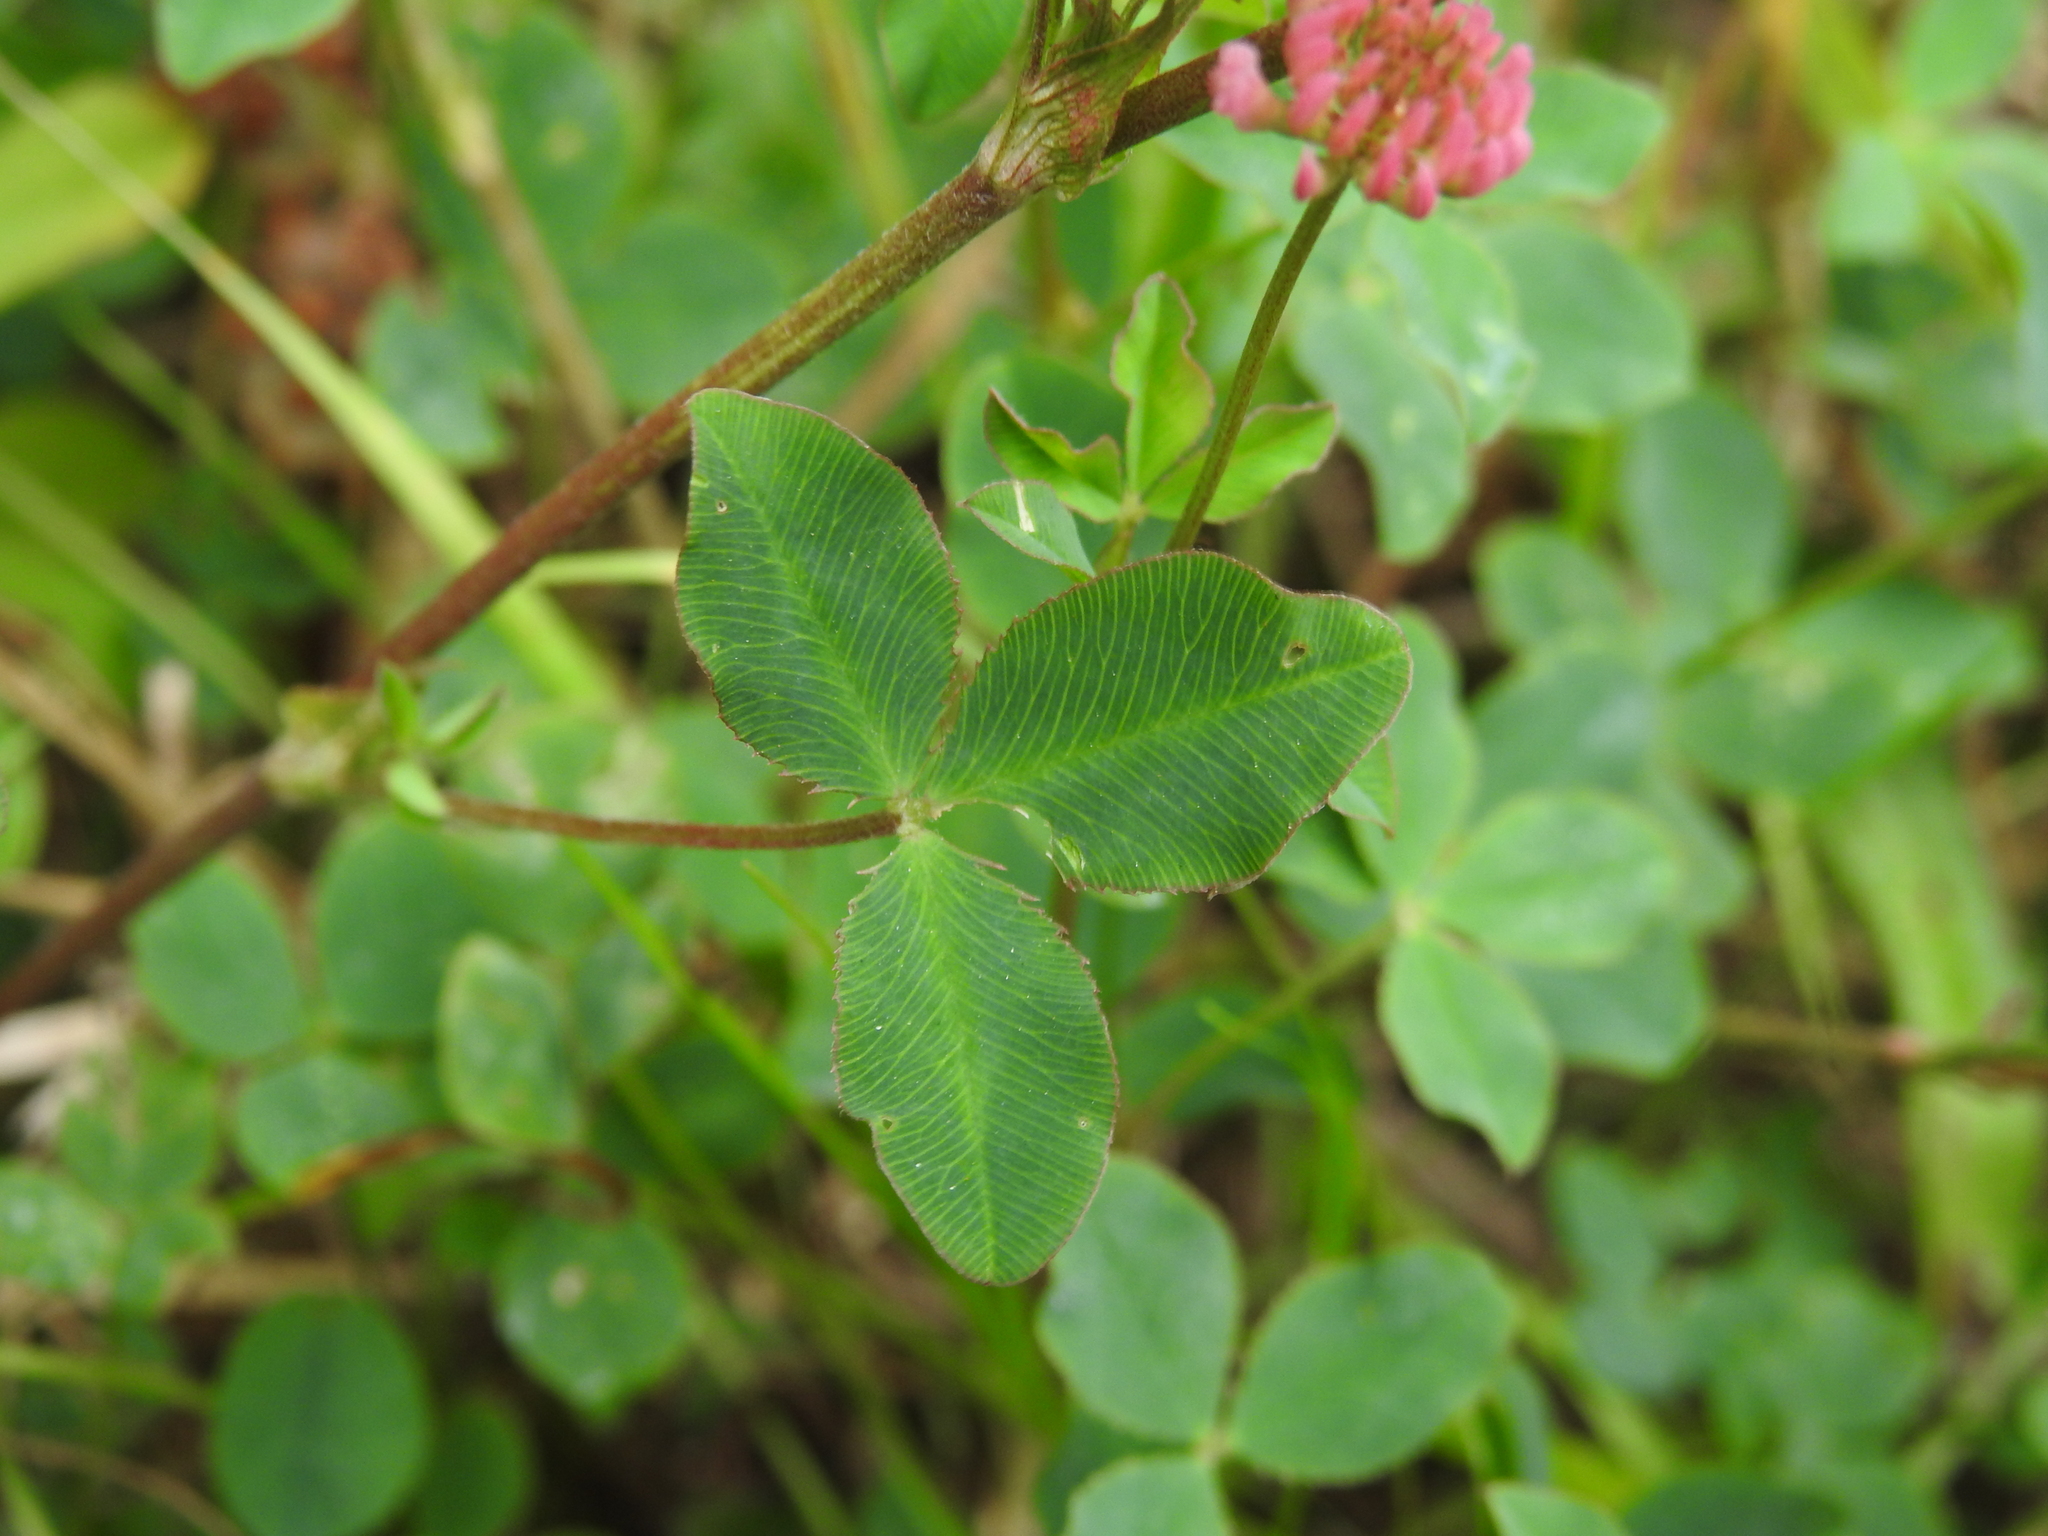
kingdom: Plantae
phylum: Tracheophyta
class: Magnoliopsida
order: Fabales
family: Fabaceae
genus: Trifolium
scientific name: Trifolium hybridum
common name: Alsike clover
